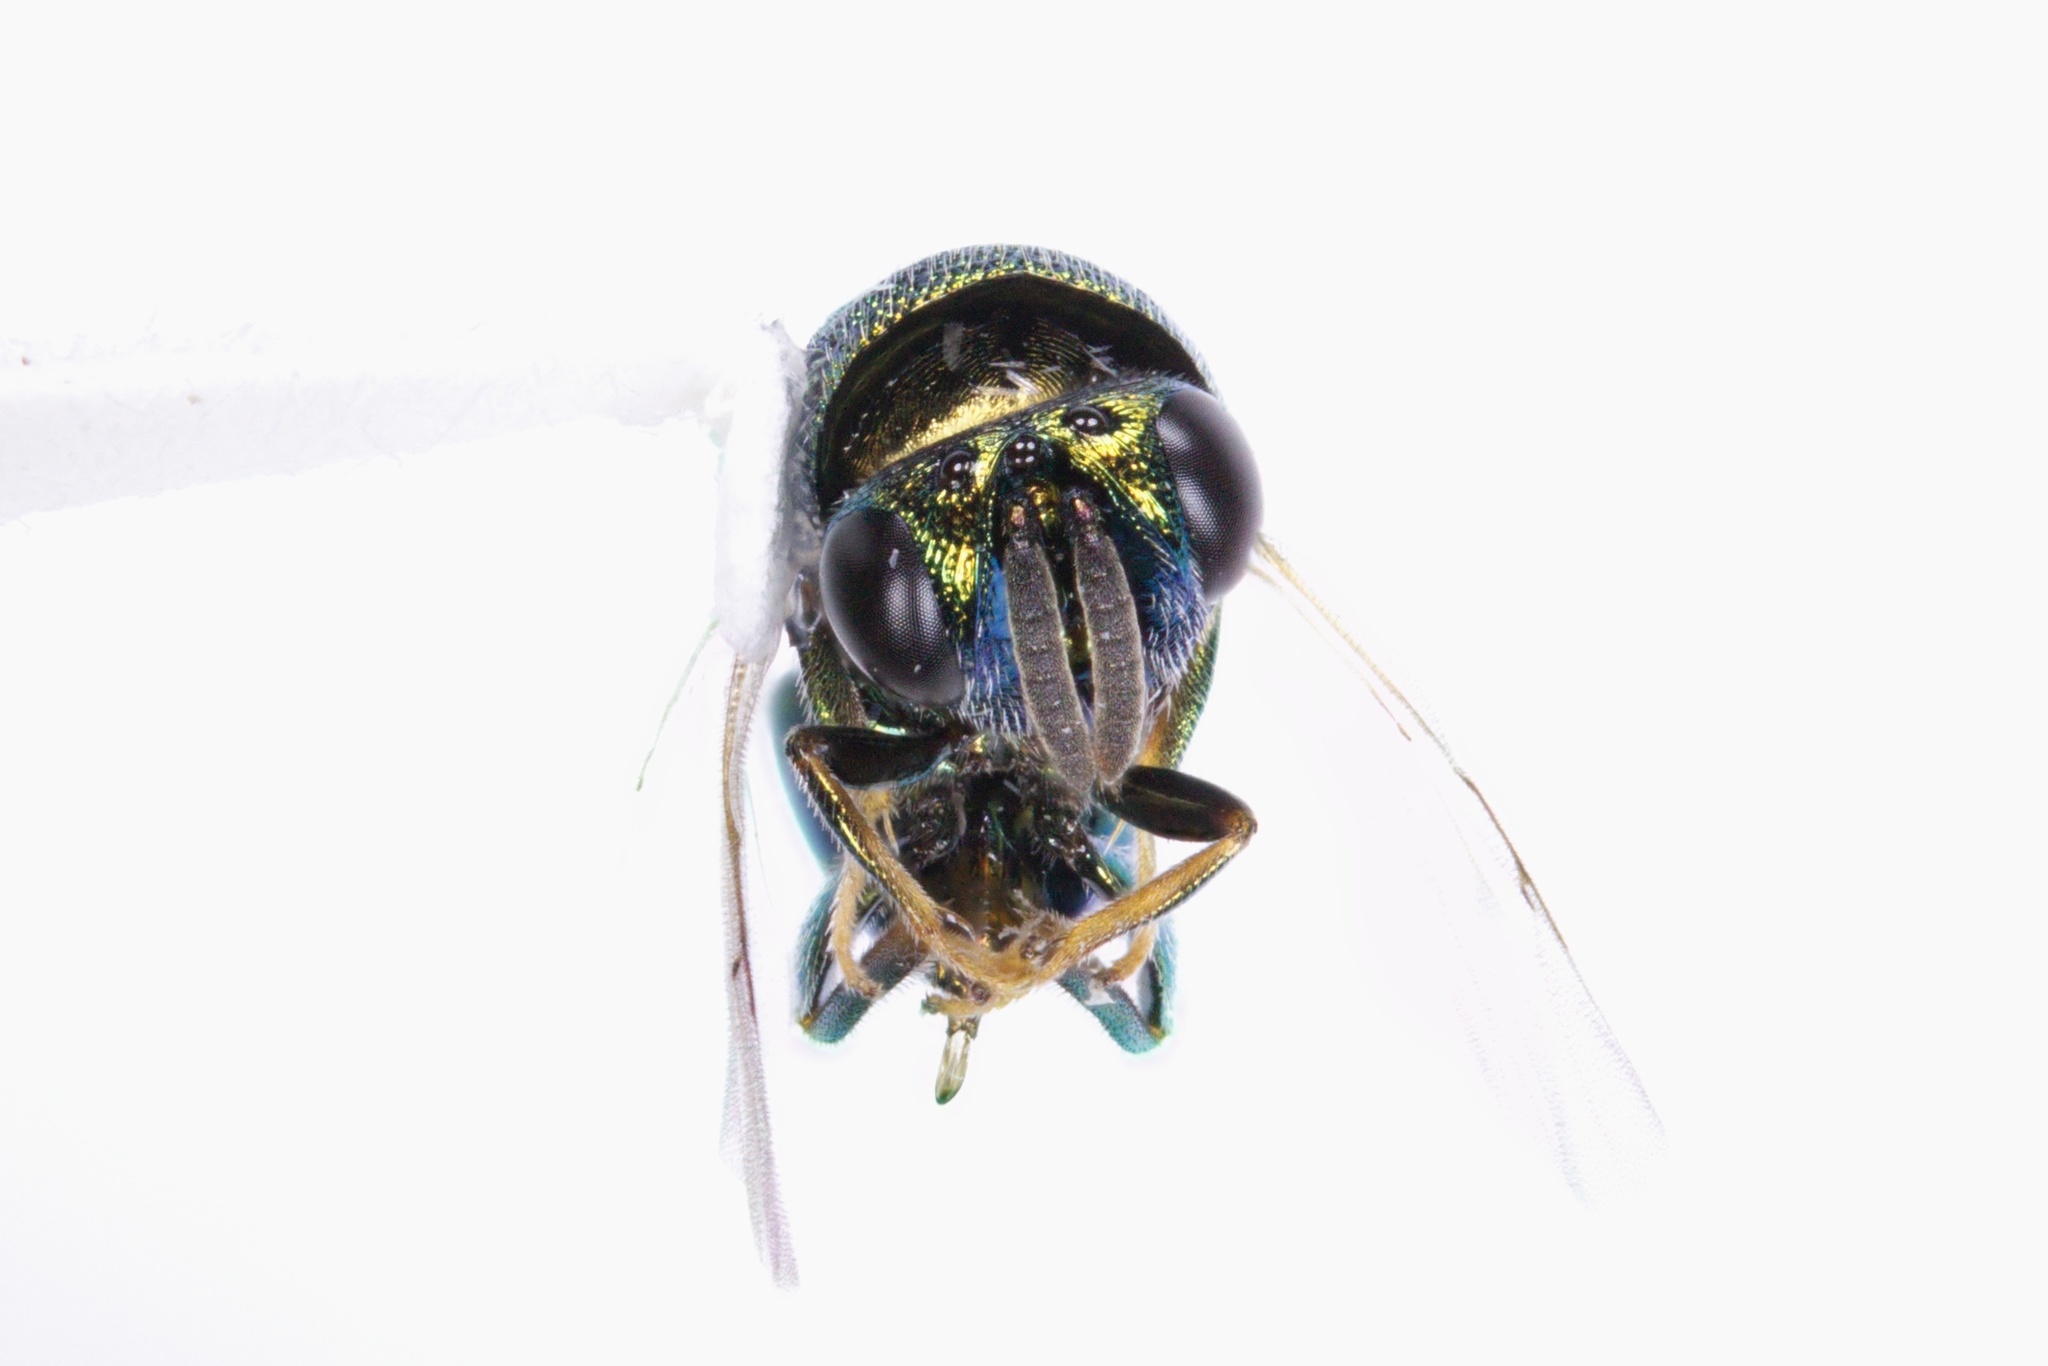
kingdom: Animalia
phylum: Arthropoda
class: Insecta
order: Hymenoptera
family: Perilampidae
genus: Perilampus
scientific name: Perilampus hyalinus
